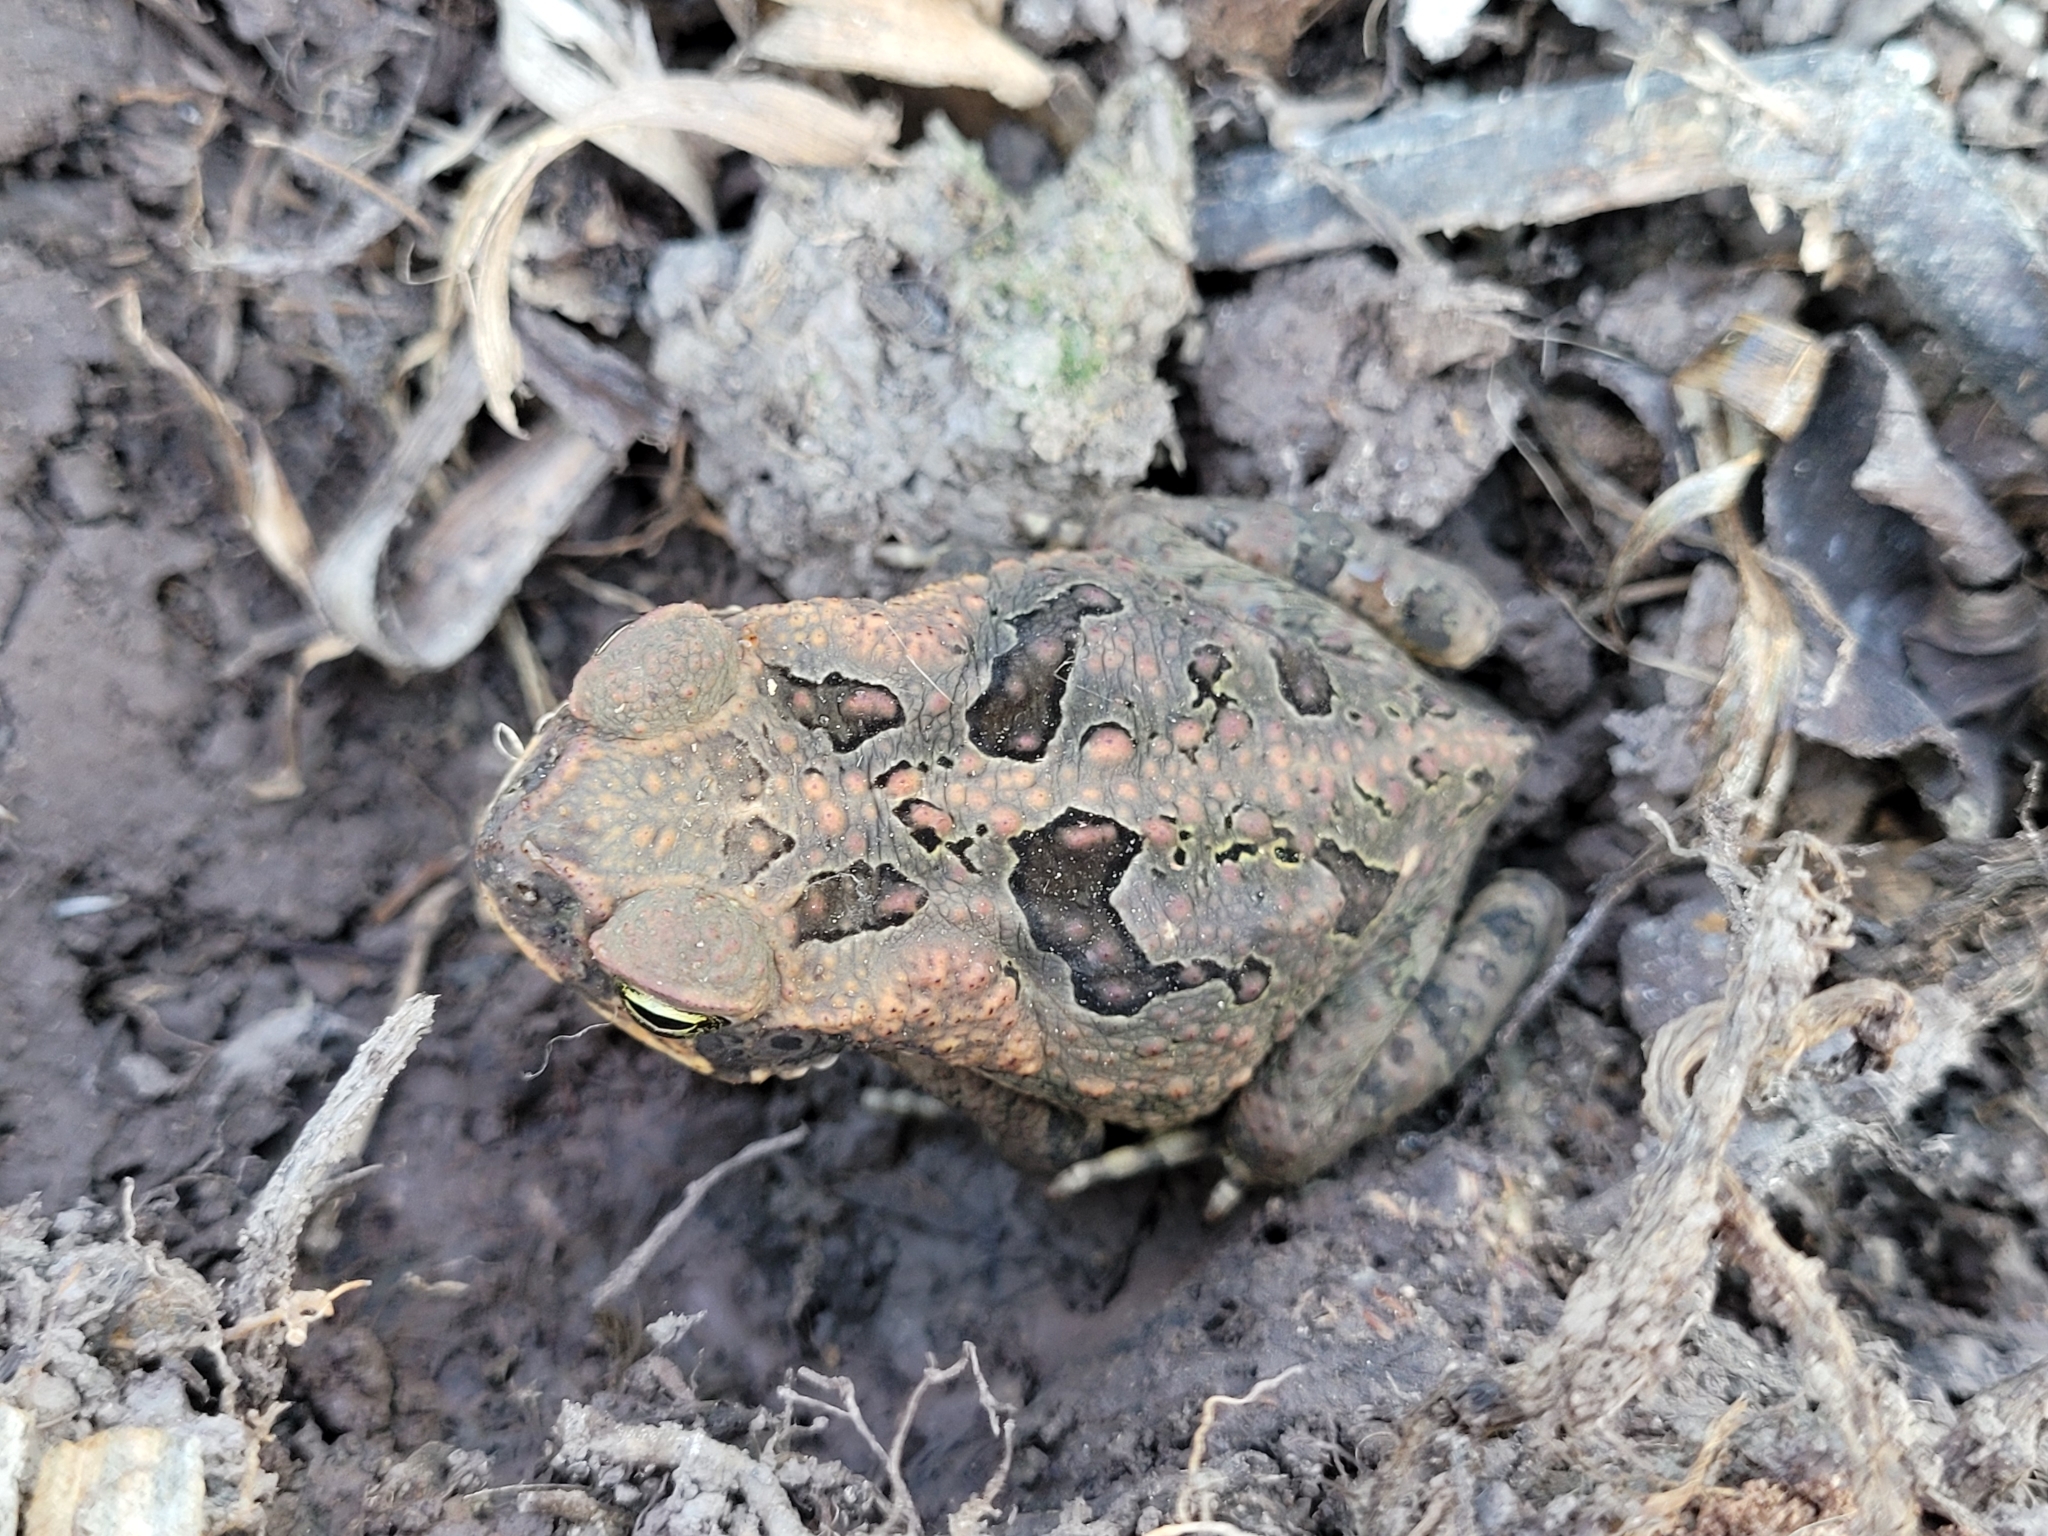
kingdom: Animalia
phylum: Chordata
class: Amphibia
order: Anura
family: Bufonidae
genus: Rhinella
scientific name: Rhinella marina
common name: Cane toad
